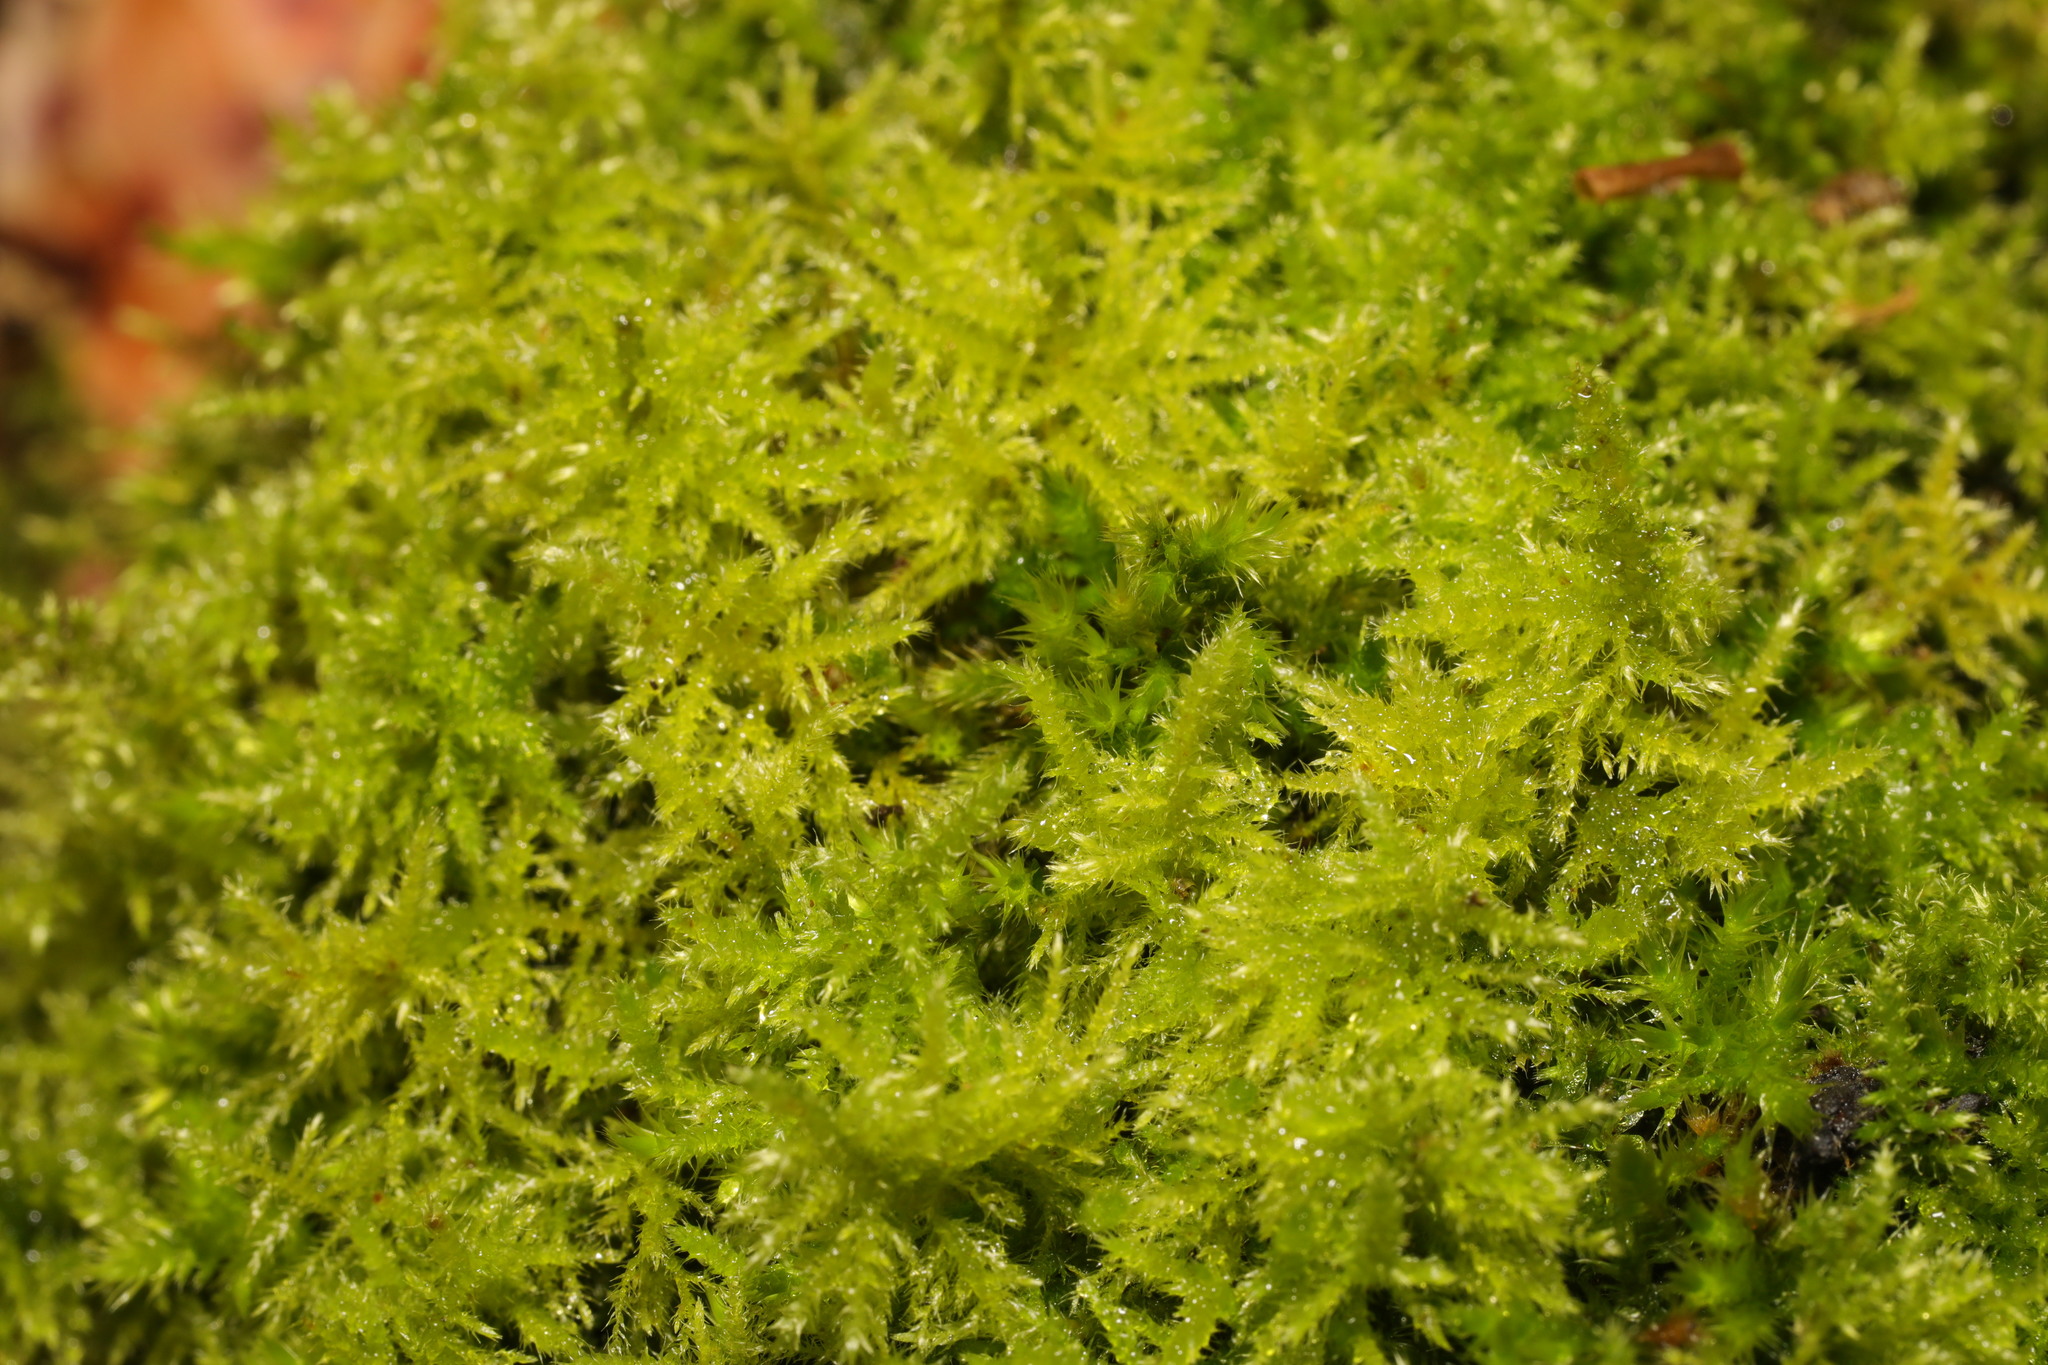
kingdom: Plantae
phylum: Bryophyta
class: Bryopsida
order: Hypnales
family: Brachytheciaceae
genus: Kindbergia
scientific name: Kindbergia praelonga
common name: Slender beaked moss
